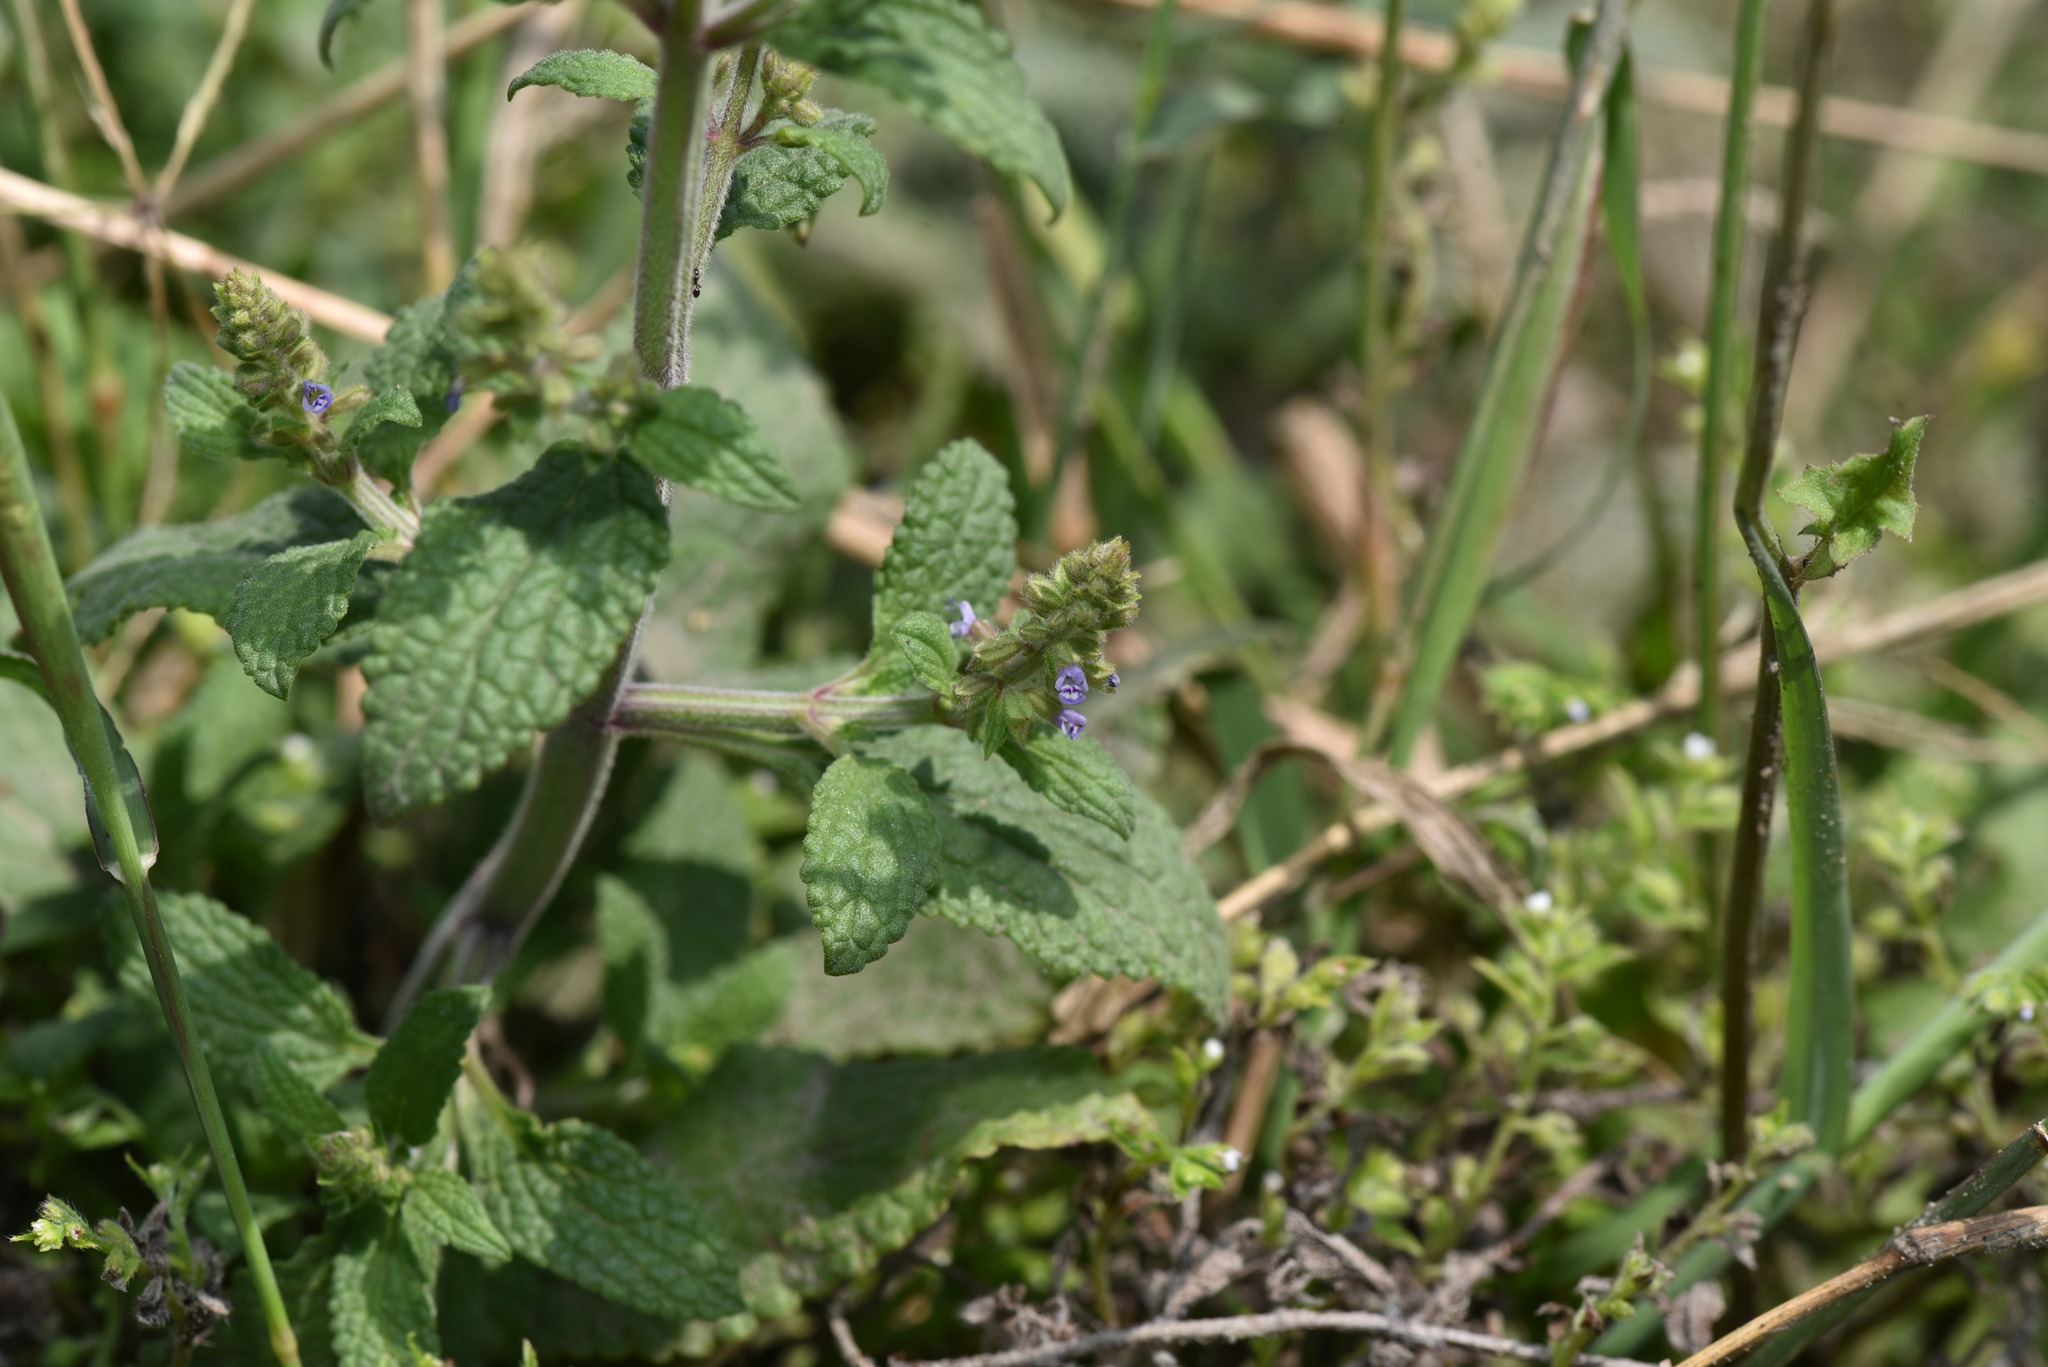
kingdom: Plantae
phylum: Tracheophyta
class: Magnoliopsida
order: Lamiales
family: Lamiaceae
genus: Salvia
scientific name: Salvia plebeia
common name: Australian sage
